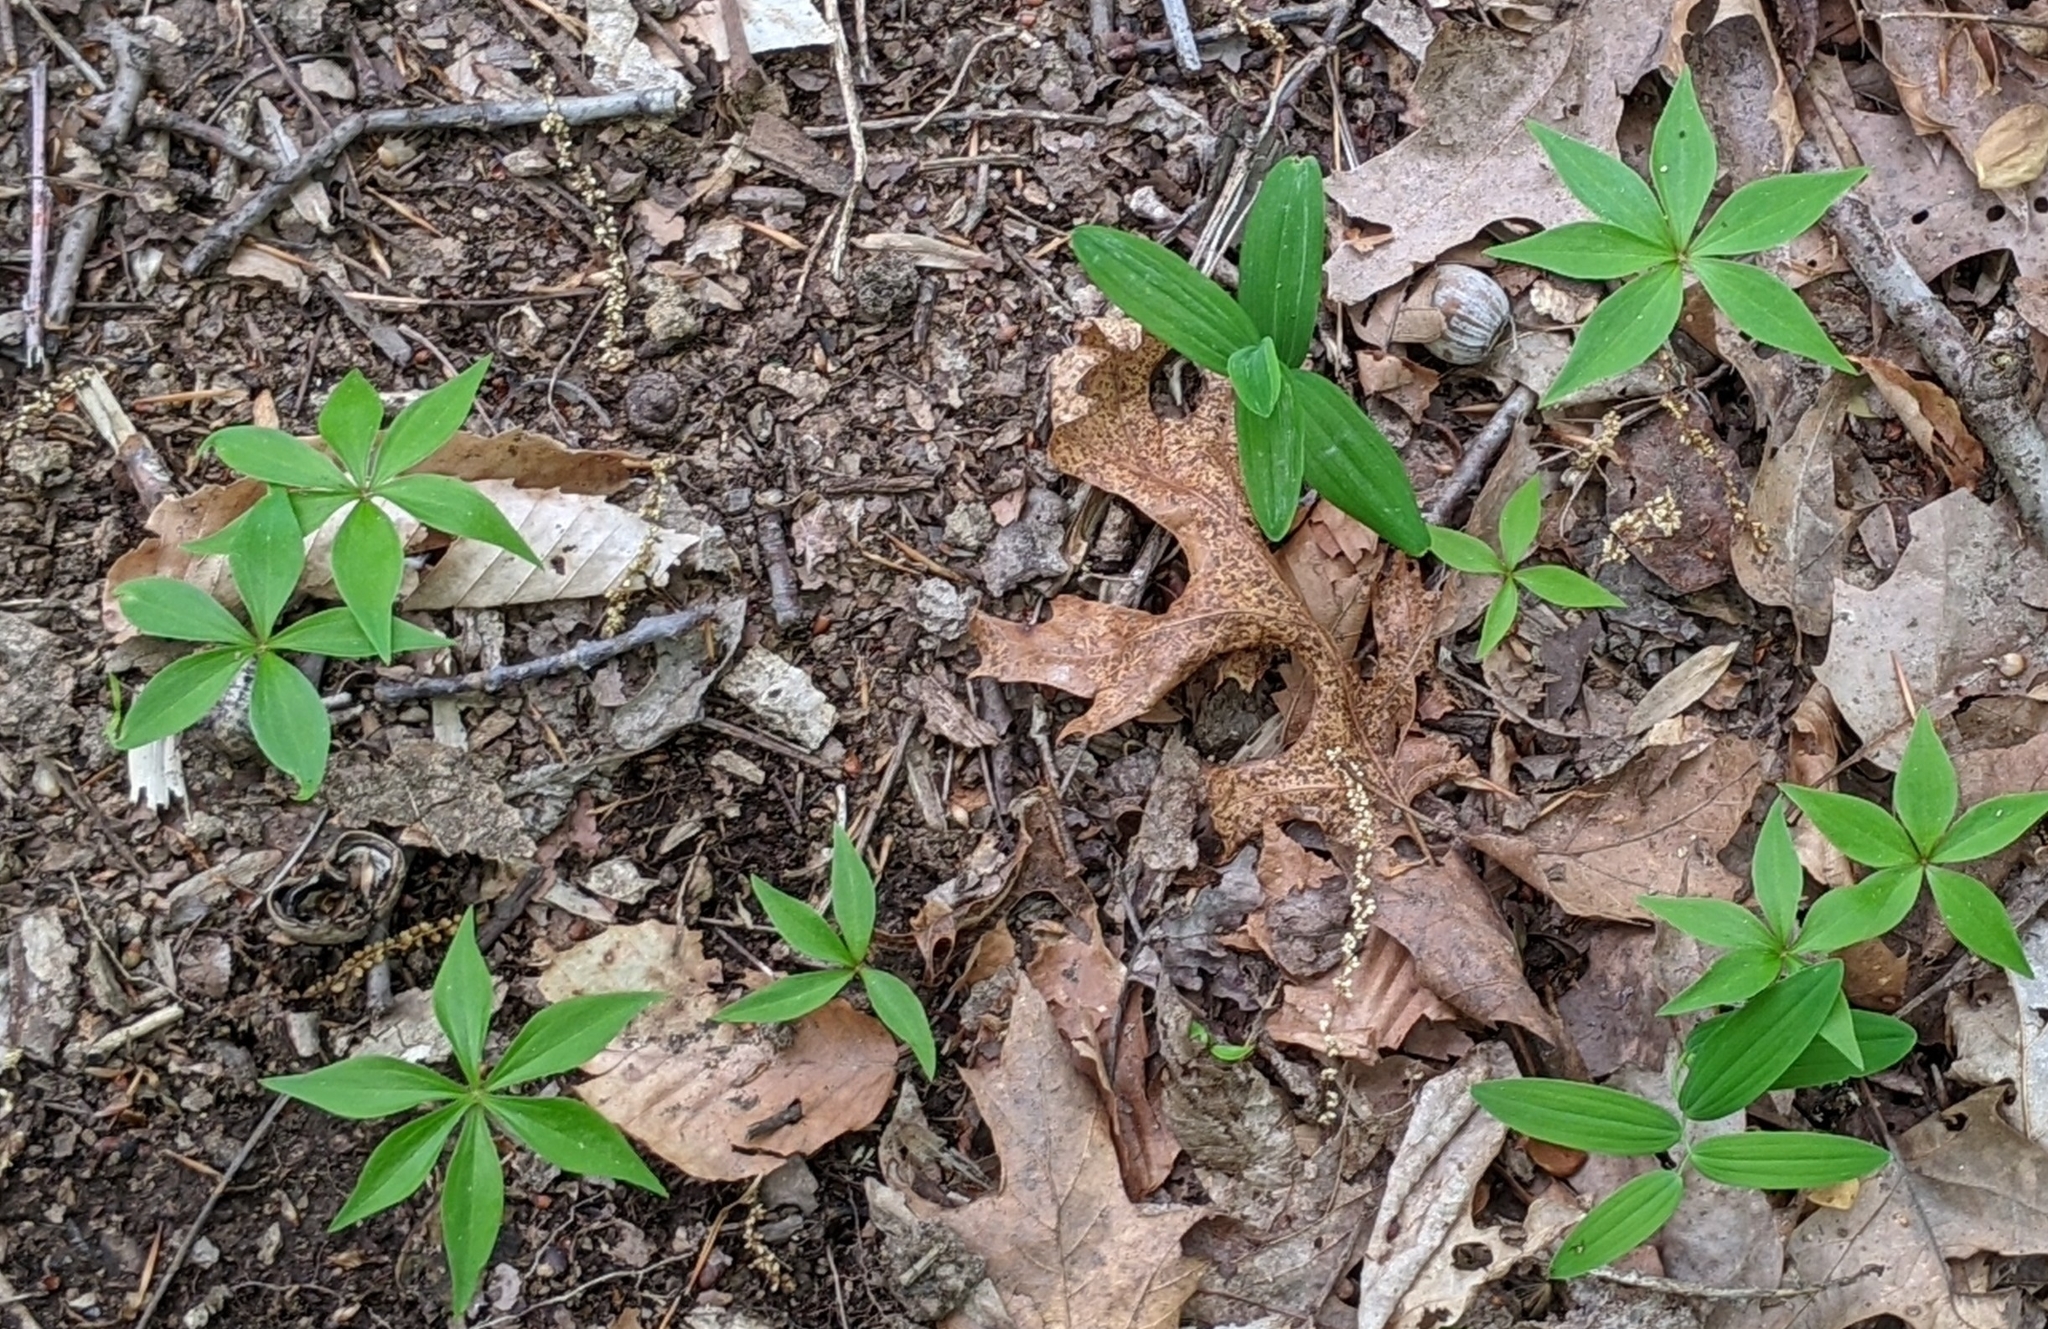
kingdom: Plantae
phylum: Tracheophyta
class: Liliopsida
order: Liliales
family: Liliaceae
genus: Medeola
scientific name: Medeola virginiana
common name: Indian cucumber-root
